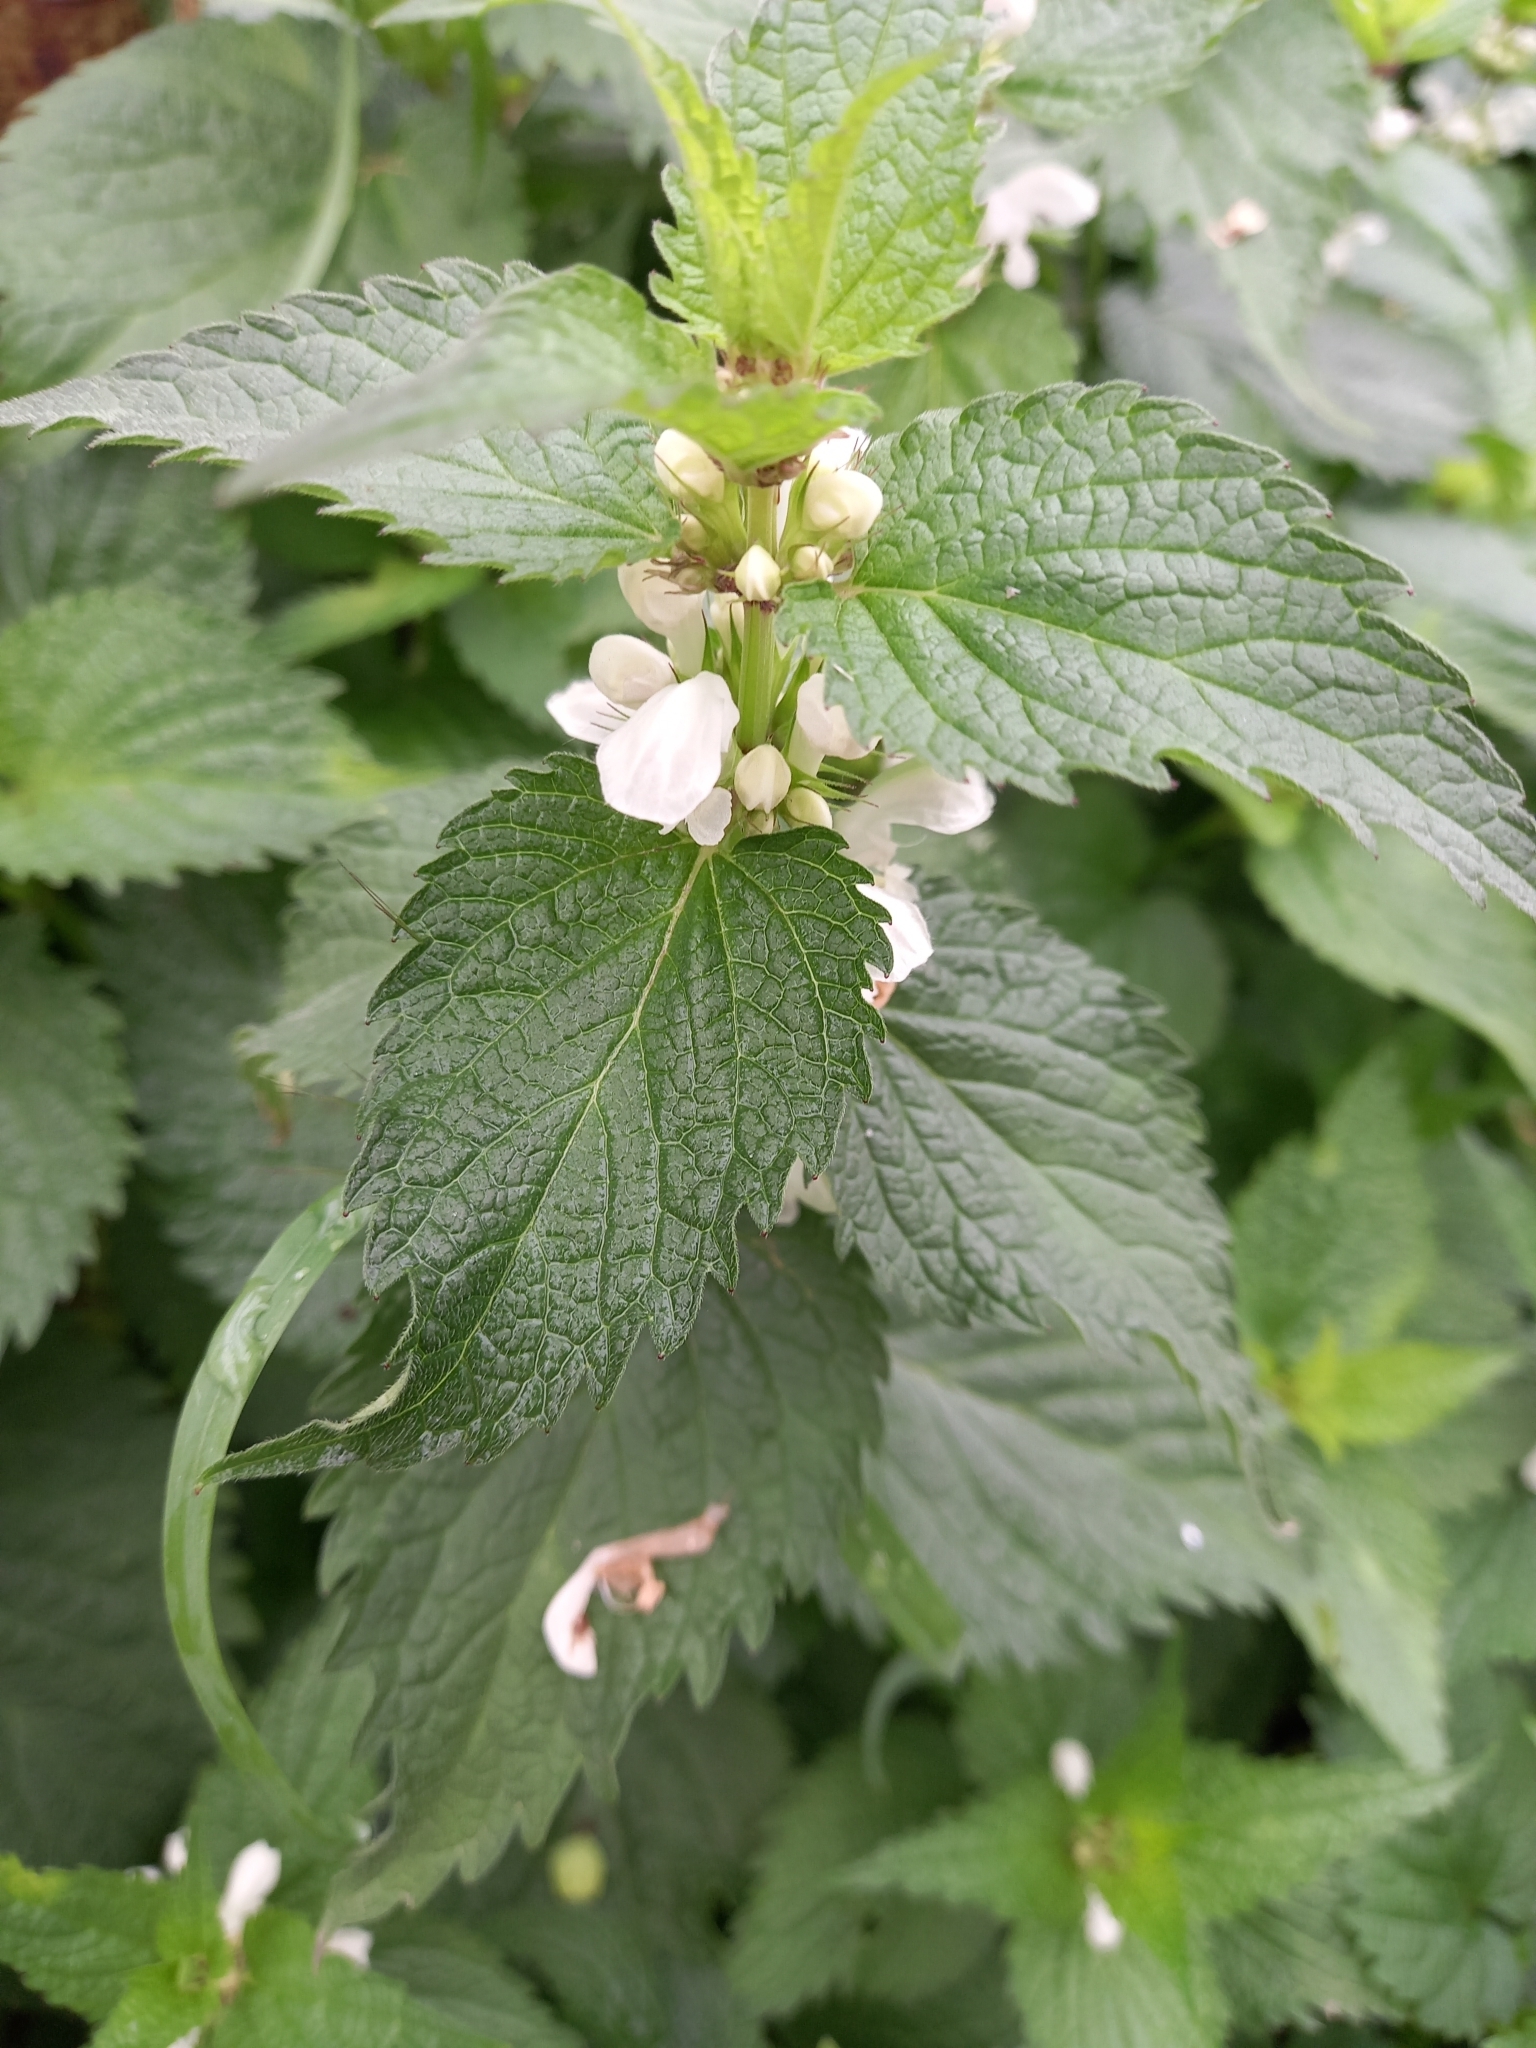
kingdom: Plantae
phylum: Tracheophyta
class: Magnoliopsida
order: Lamiales
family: Lamiaceae
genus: Lamium
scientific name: Lamium album
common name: White dead-nettle
